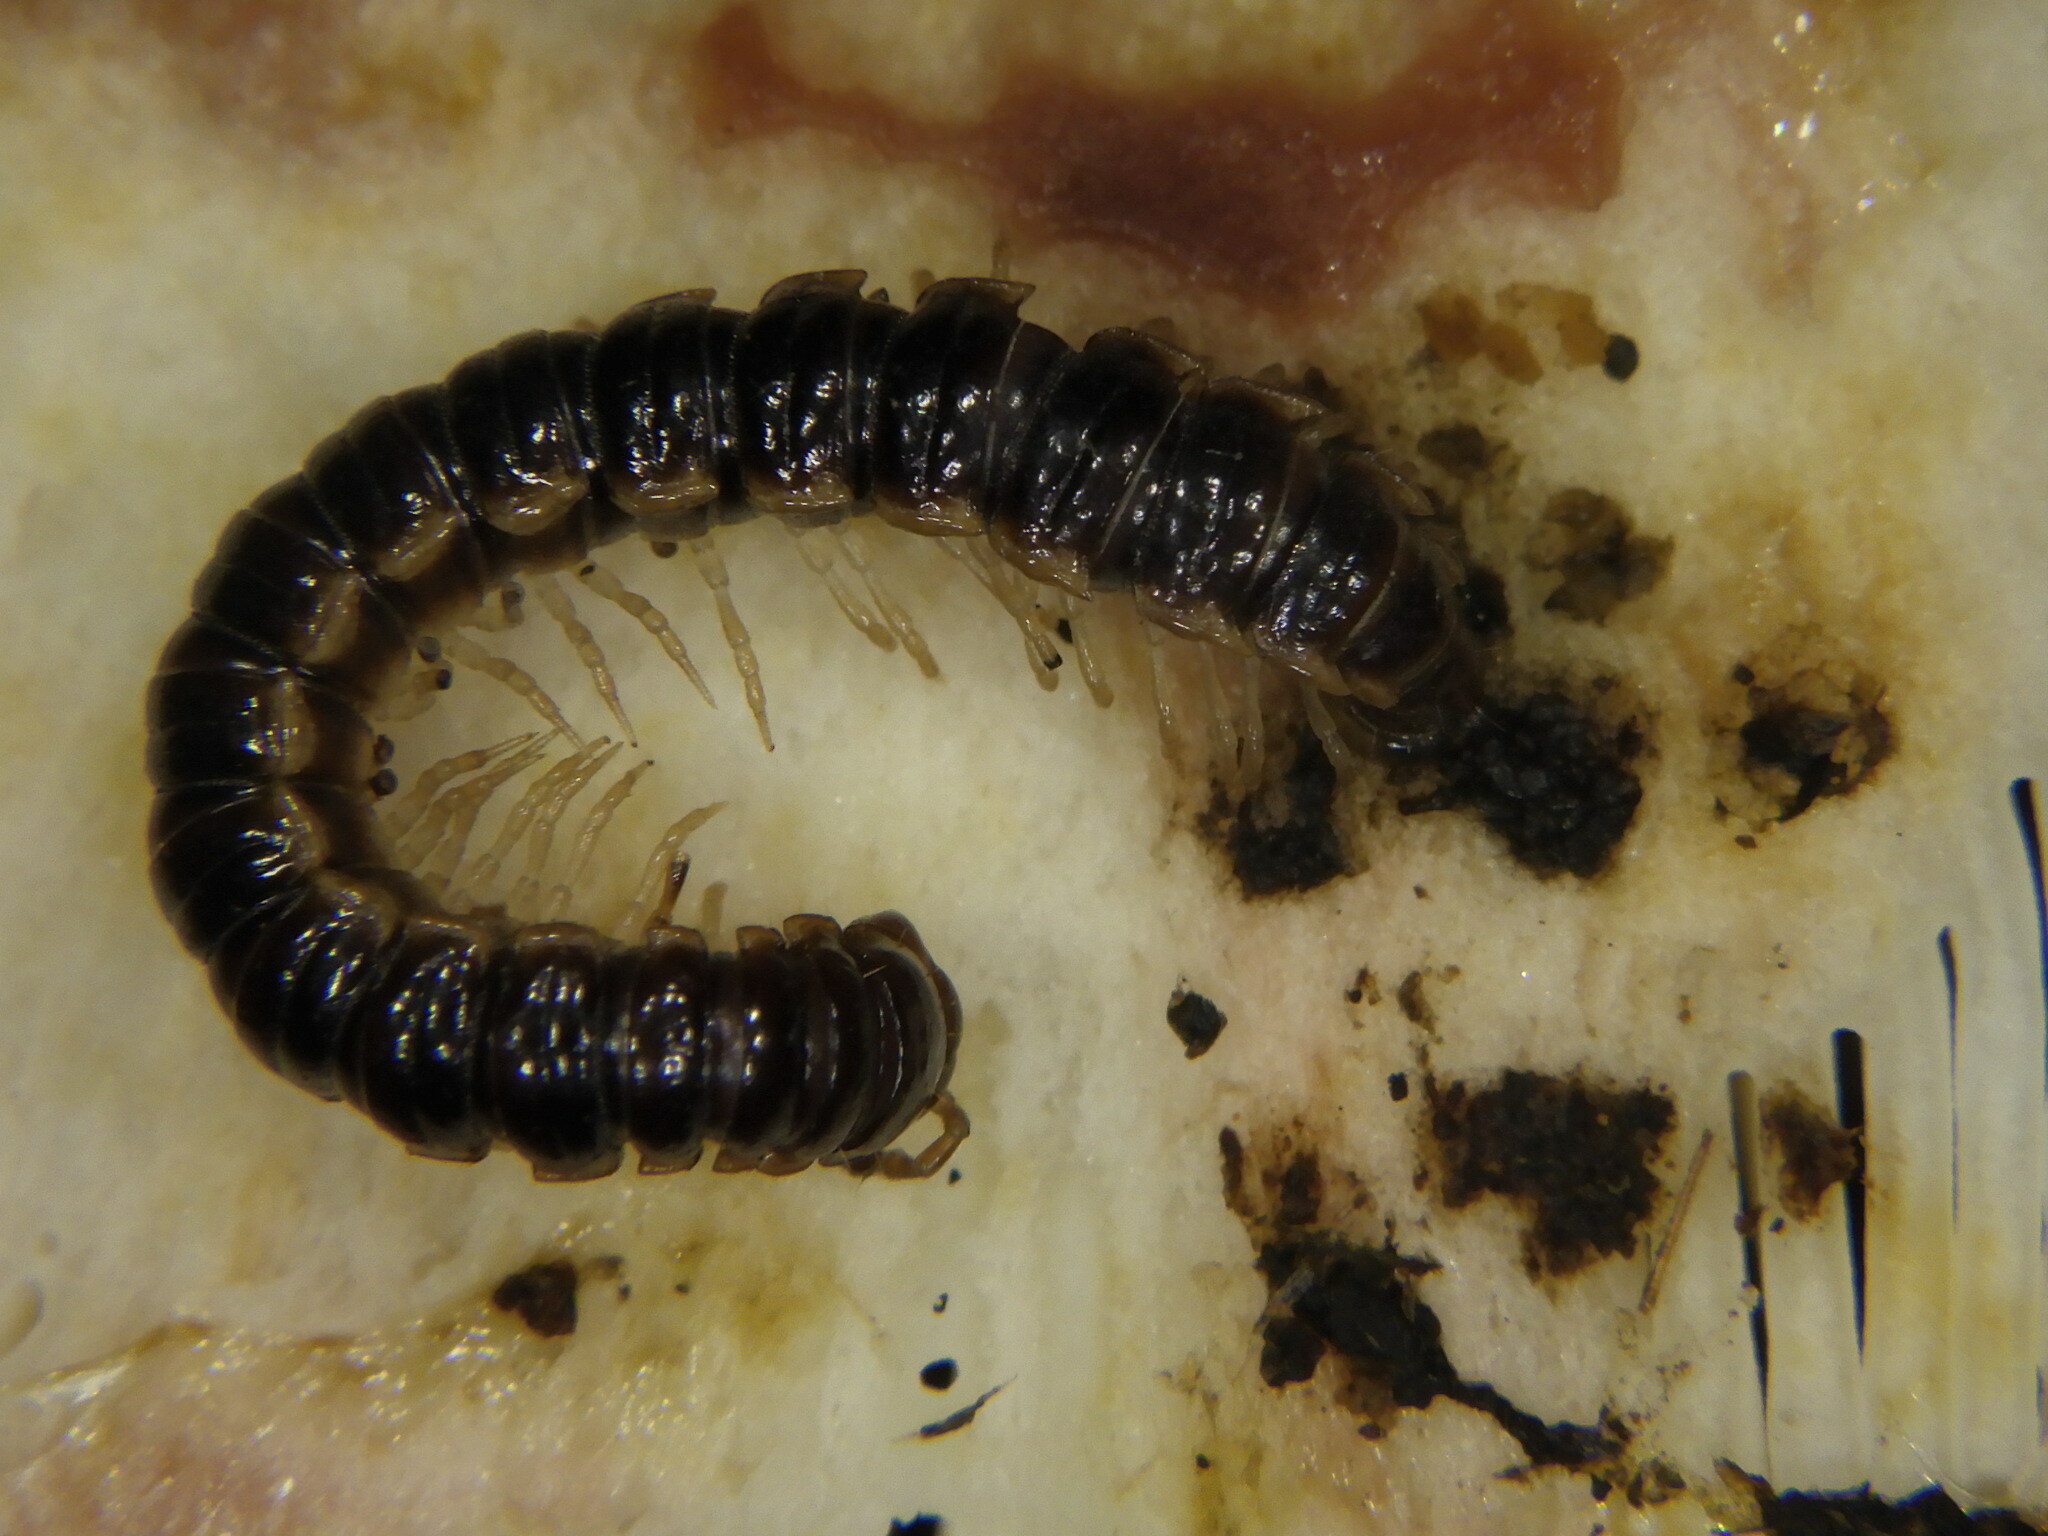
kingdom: Animalia
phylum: Arthropoda
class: Diplopoda
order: Polydesmida
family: Paradoxosomatidae
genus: Oxidus
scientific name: Oxidus gracilis
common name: Greenhouse millipede
